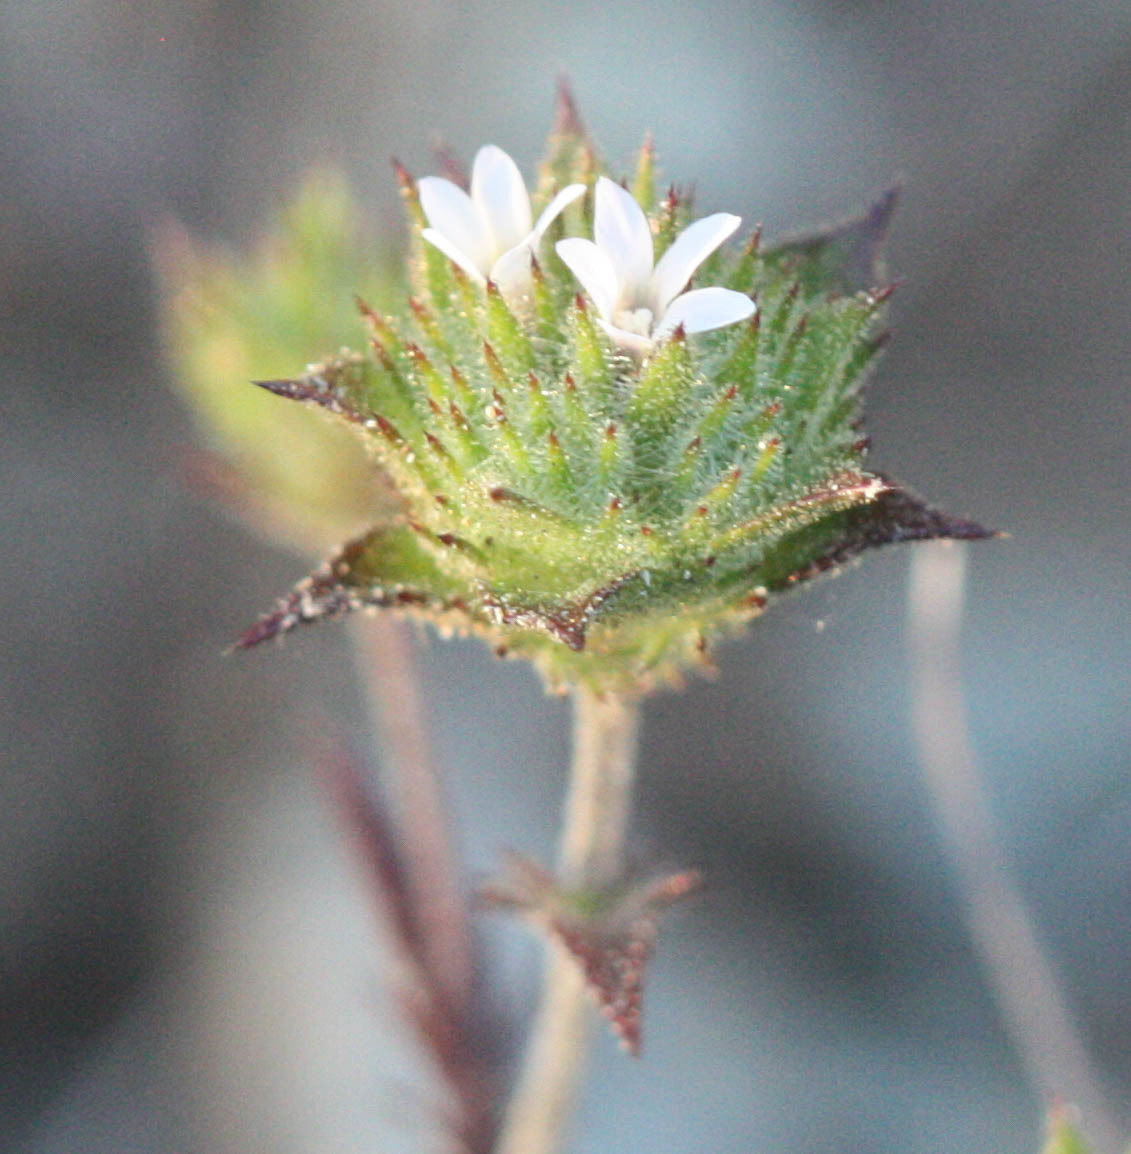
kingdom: Plantae
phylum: Tracheophyta
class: Magnoliopsida
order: Ericales
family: Polemoniaceae
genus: Navarretia
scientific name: Navarretia rosulata
